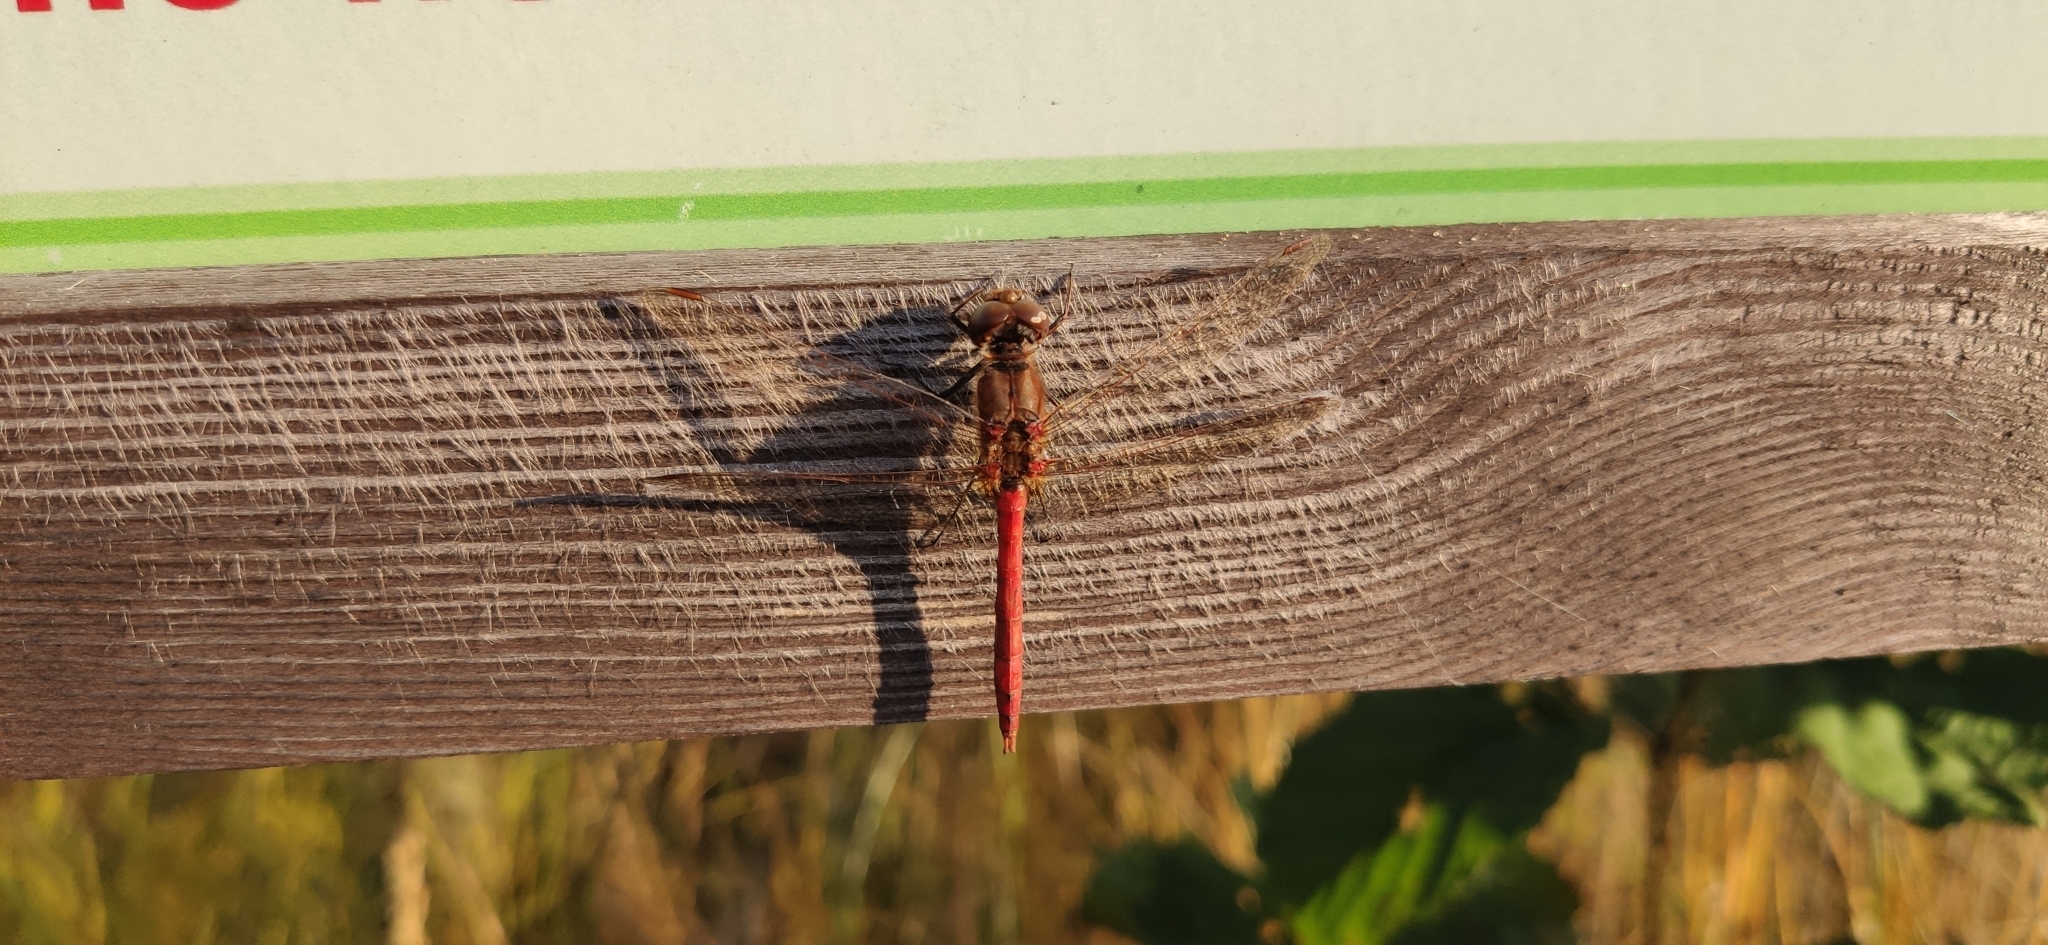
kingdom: Animalia
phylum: Arthropoda
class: Insecta
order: Odonata
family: Libellulidae
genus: Sympetrum
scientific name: Sympetrum vulgatum
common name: Vagrant darter
